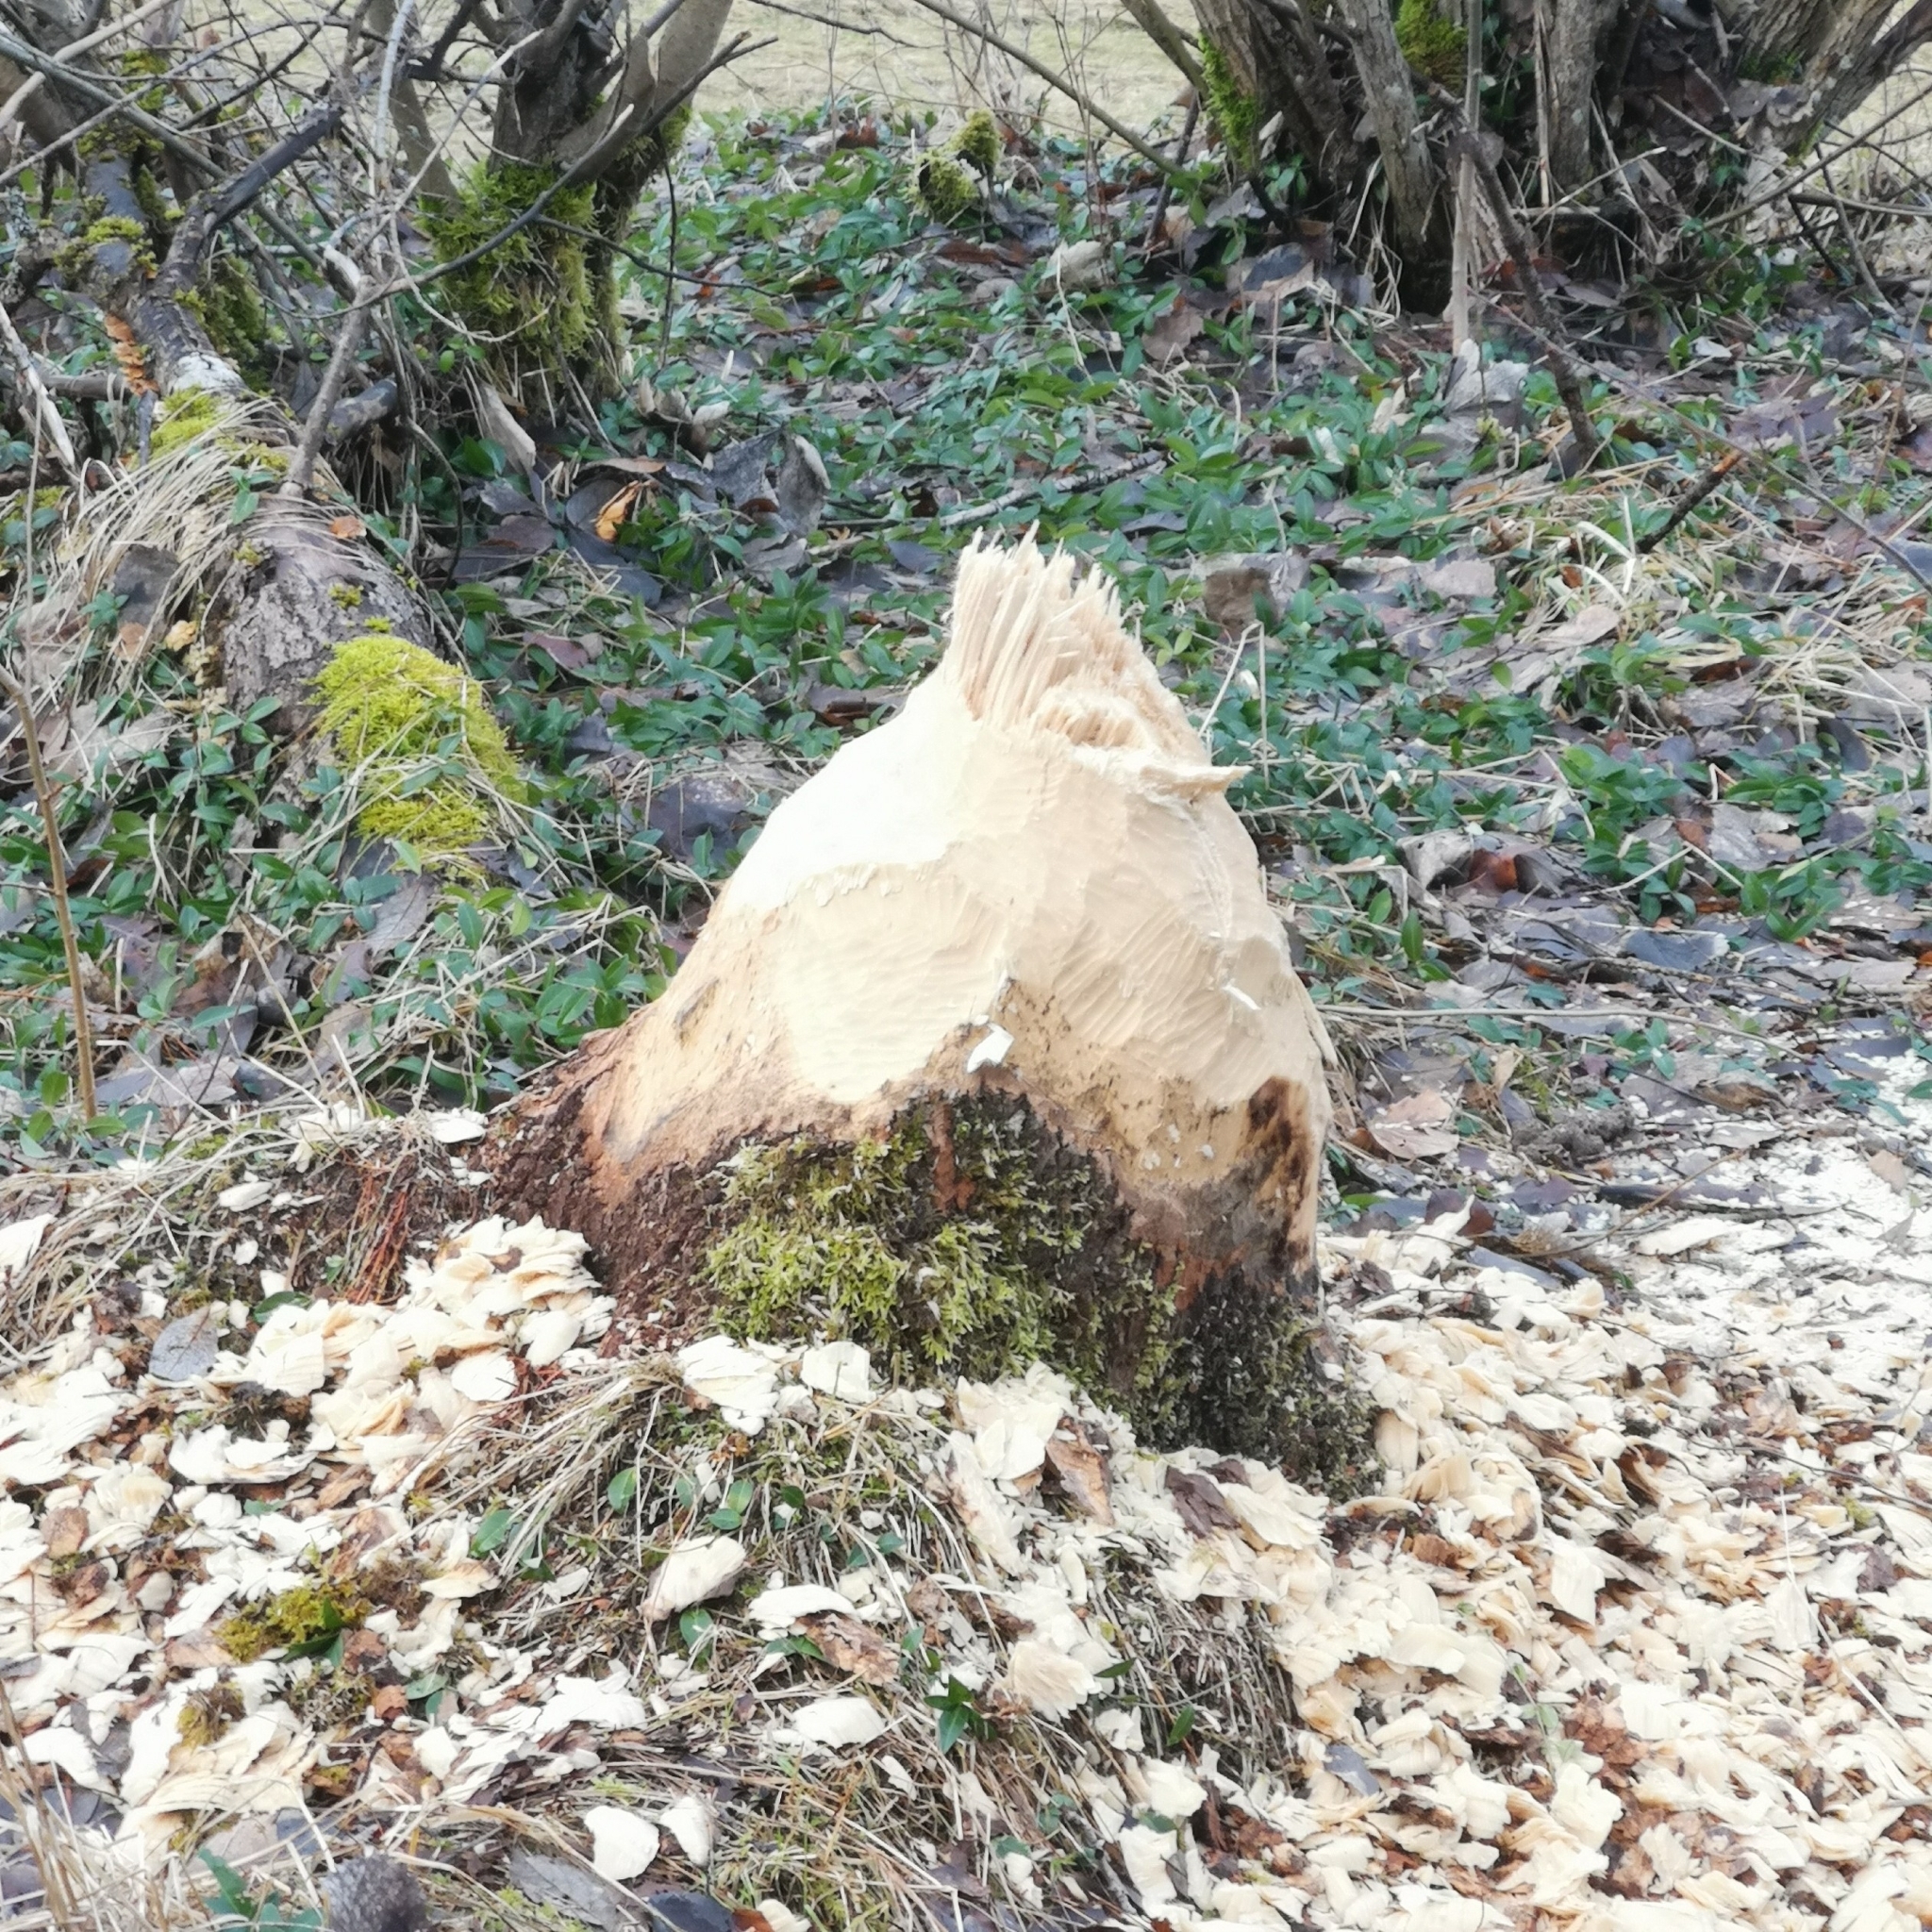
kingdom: Animalia
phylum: Chordata
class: Mammalia
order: Rodentia
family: Castoridae
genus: Castor
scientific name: Castor fiber
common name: Eurasian beaver
